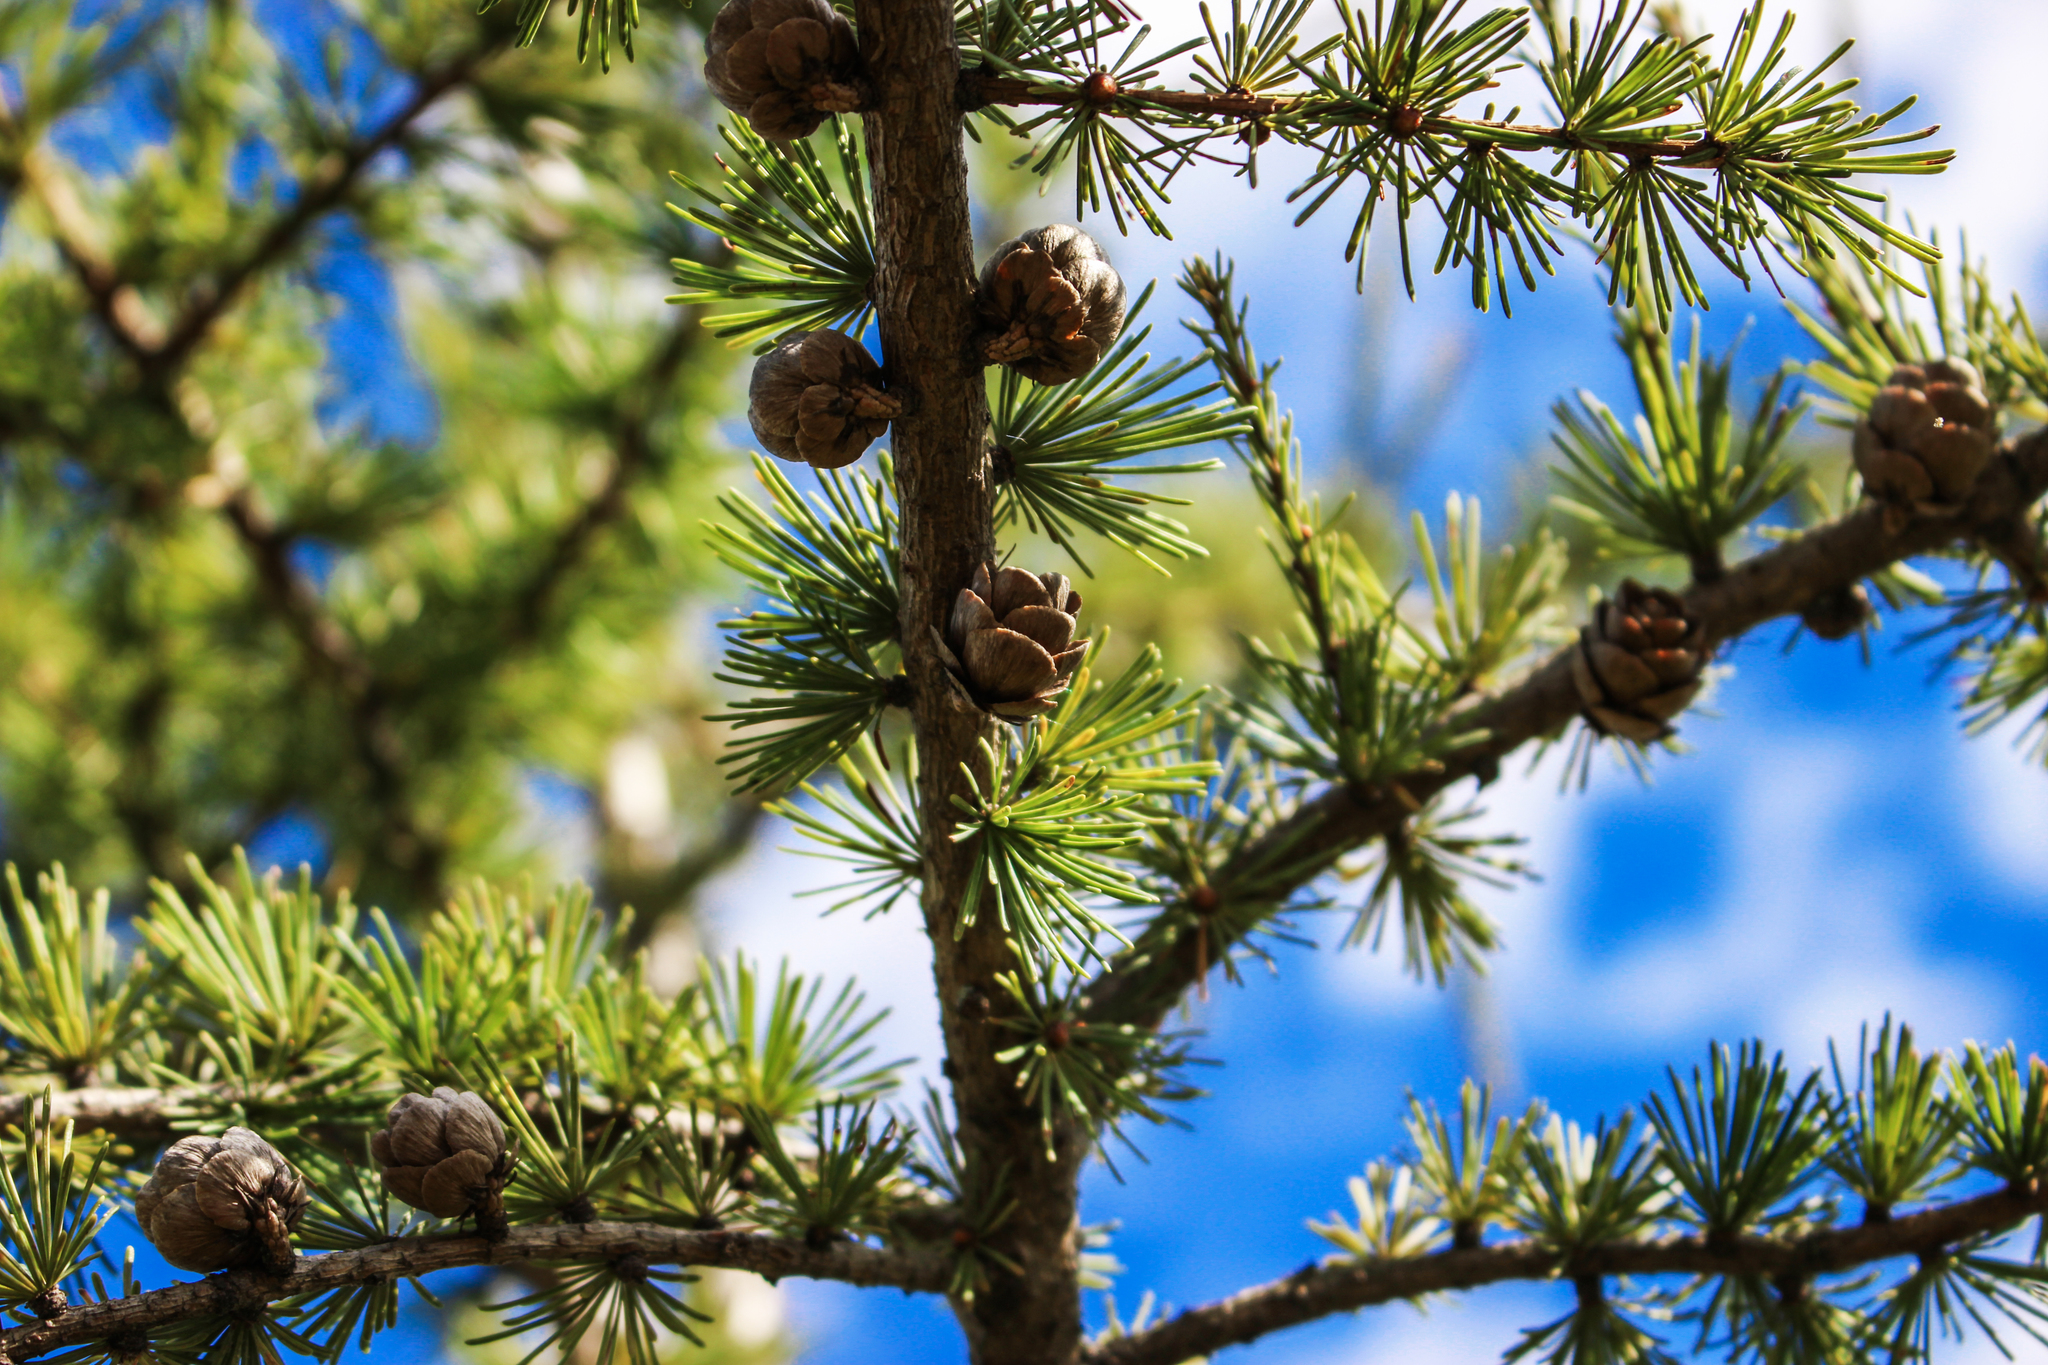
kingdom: Plantae
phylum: Tracheophyta
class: Pinopsida
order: Pinales
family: Pinaceae
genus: Larix
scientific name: Larix laricina
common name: American larch
